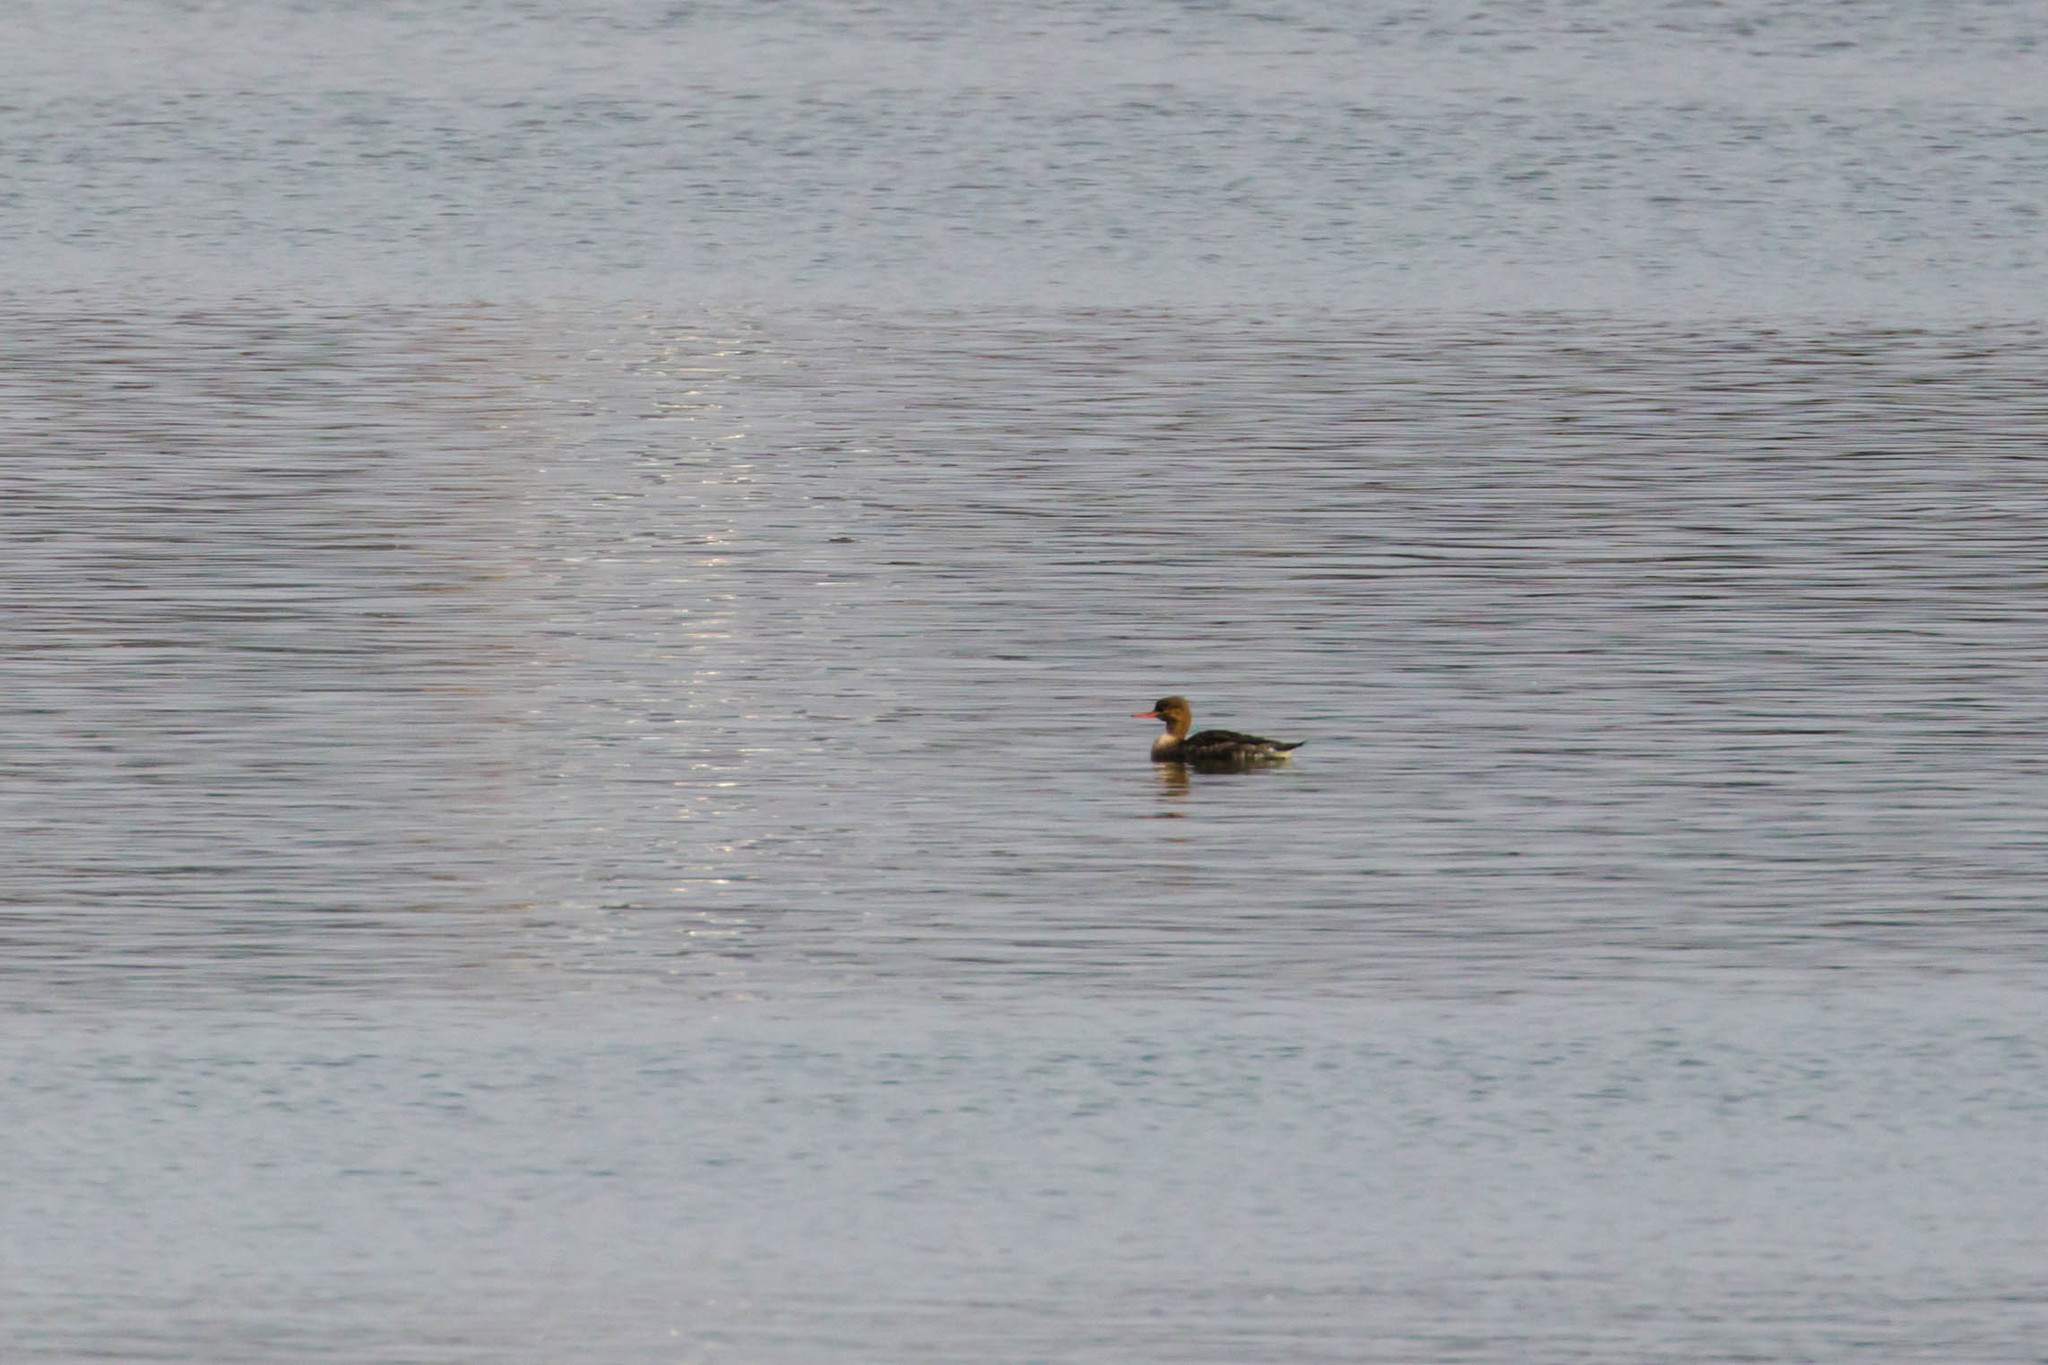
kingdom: Animalia
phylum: Chordata
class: Aves
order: Anseriformes
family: Anatidae
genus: Mergus
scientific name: Mergus serrator
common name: Red-breasted merganser
